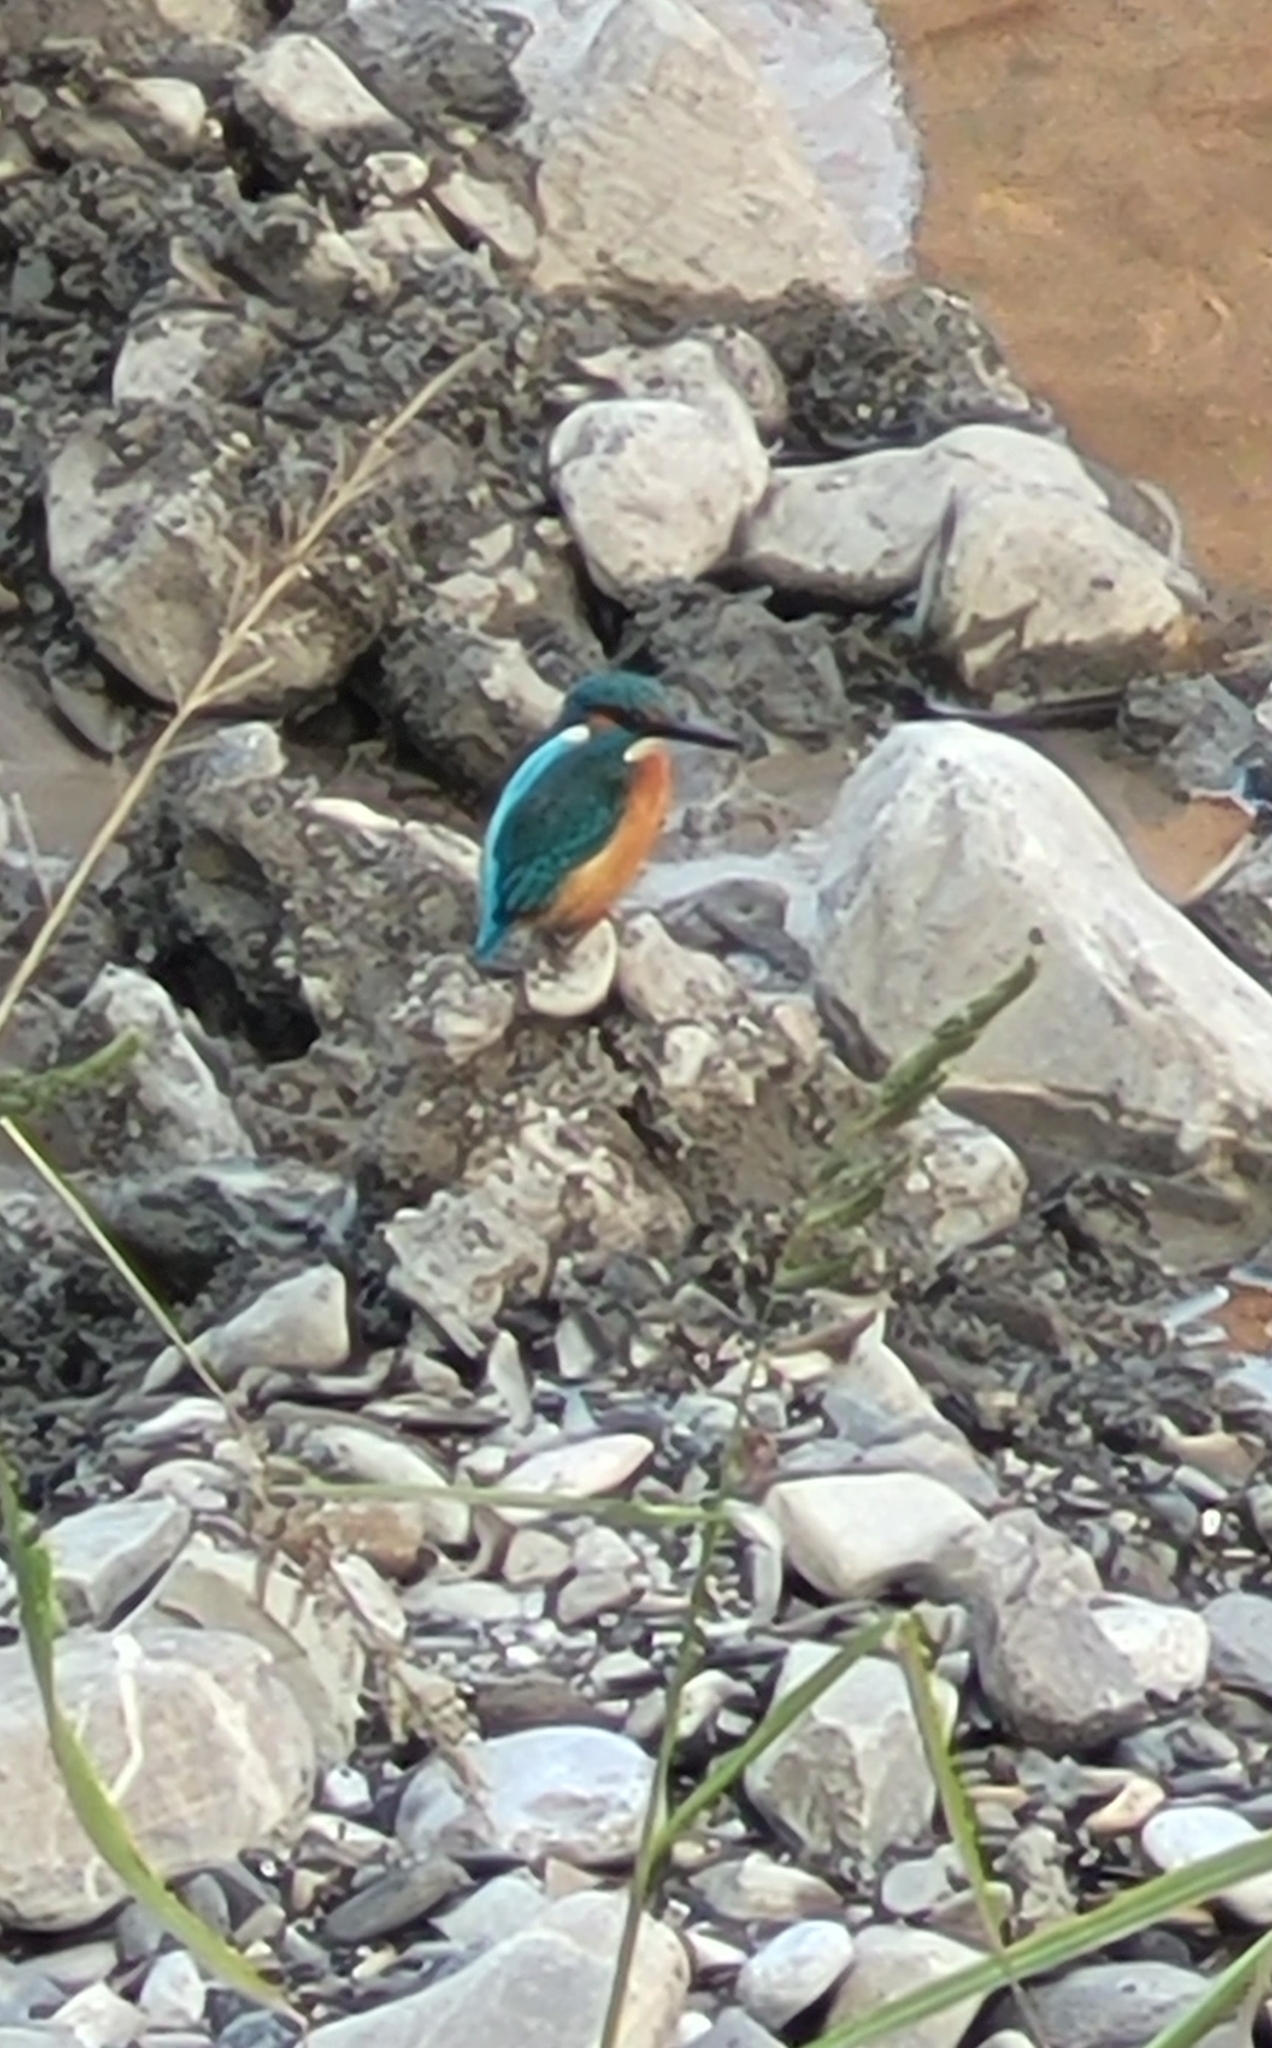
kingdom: Animalia
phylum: Chordata
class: Aves
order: Coraciiformes
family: Alcedinidae
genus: Alcedo
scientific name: Alcedo atthis
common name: Common kingfisher
